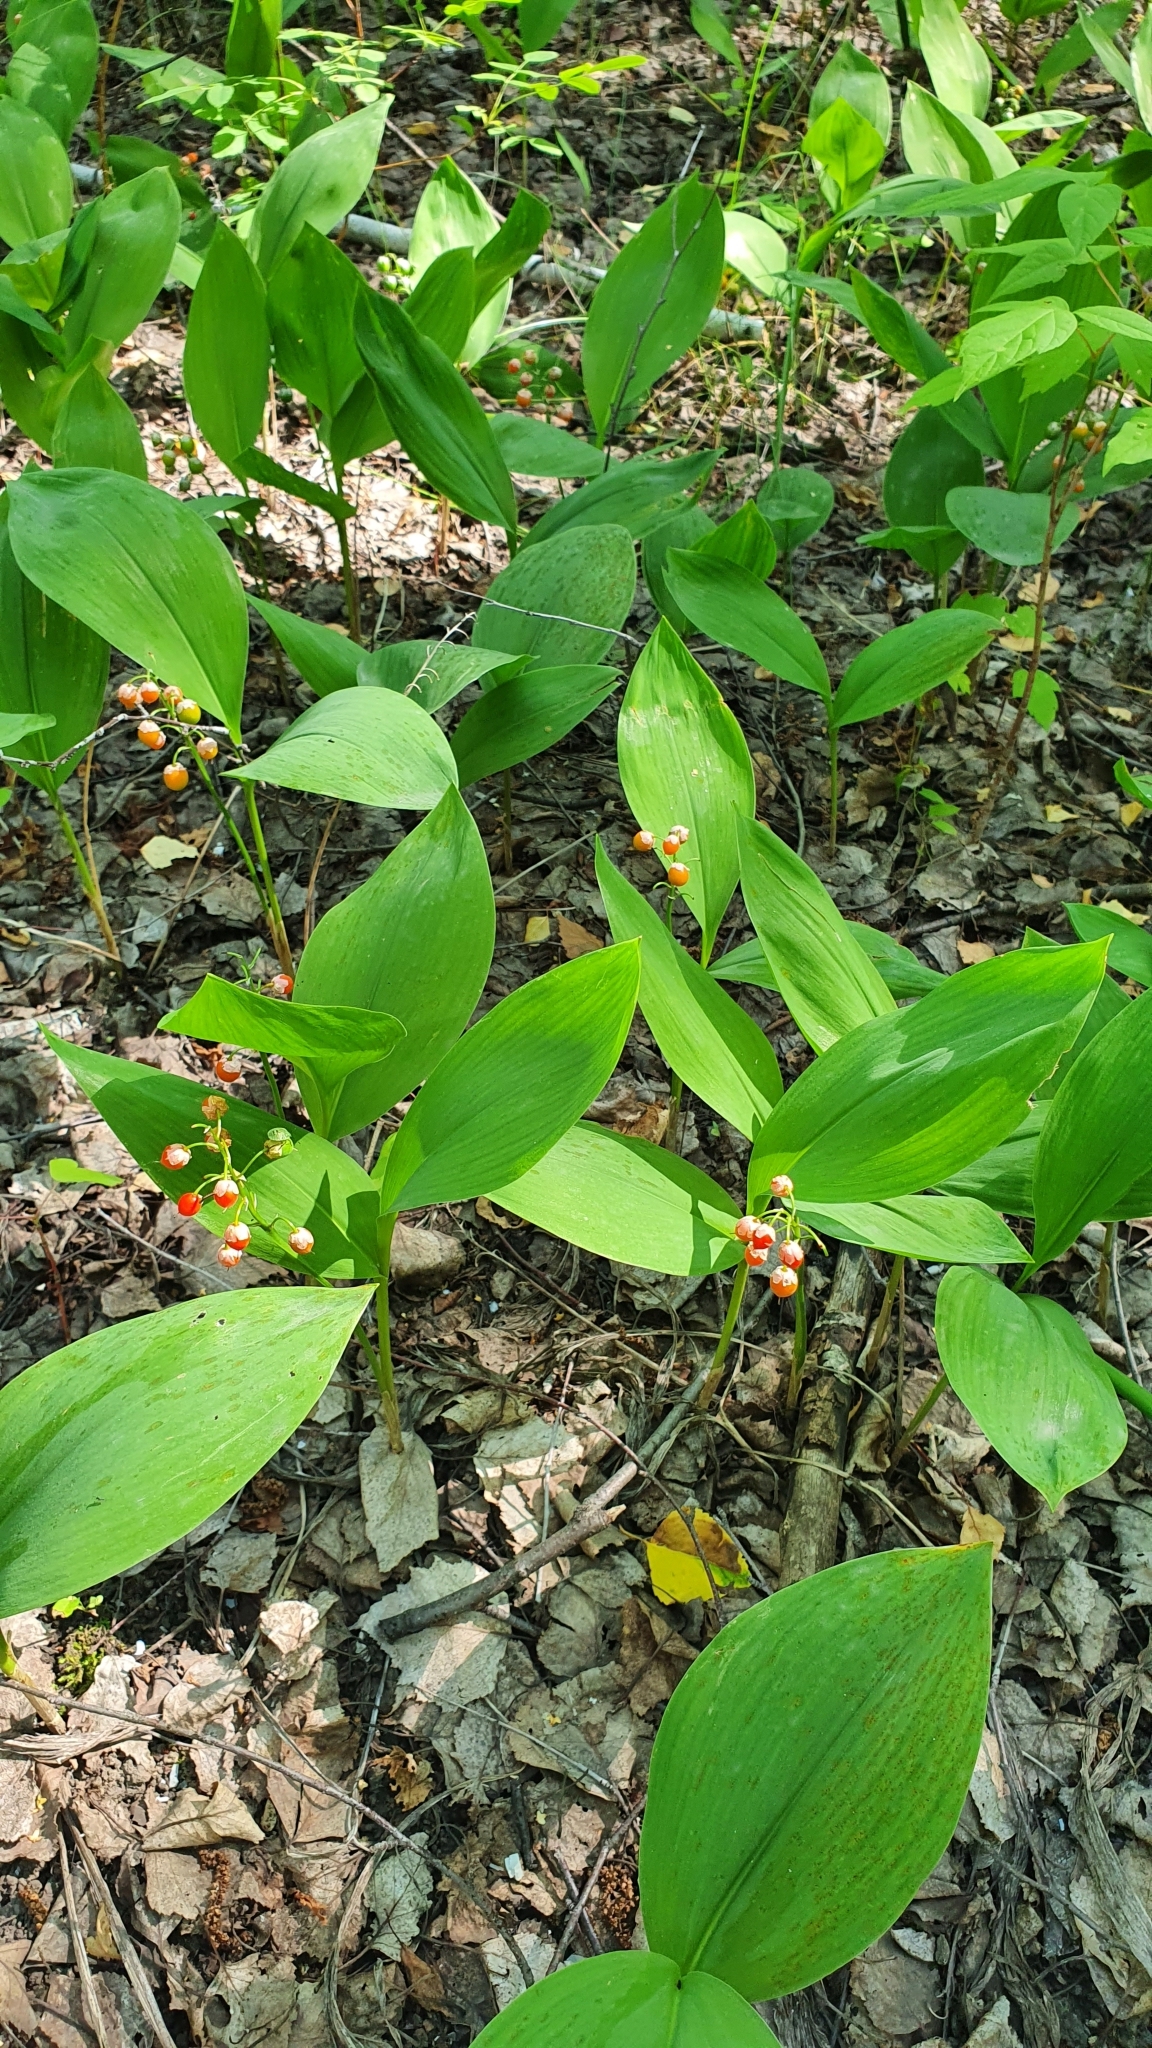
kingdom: Plantae
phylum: Tracheophyta
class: Liliopsida
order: Asparagales
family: Asparagaceae
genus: Convallaria
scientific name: Convallaria majalis
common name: Lily-of-the-valley
